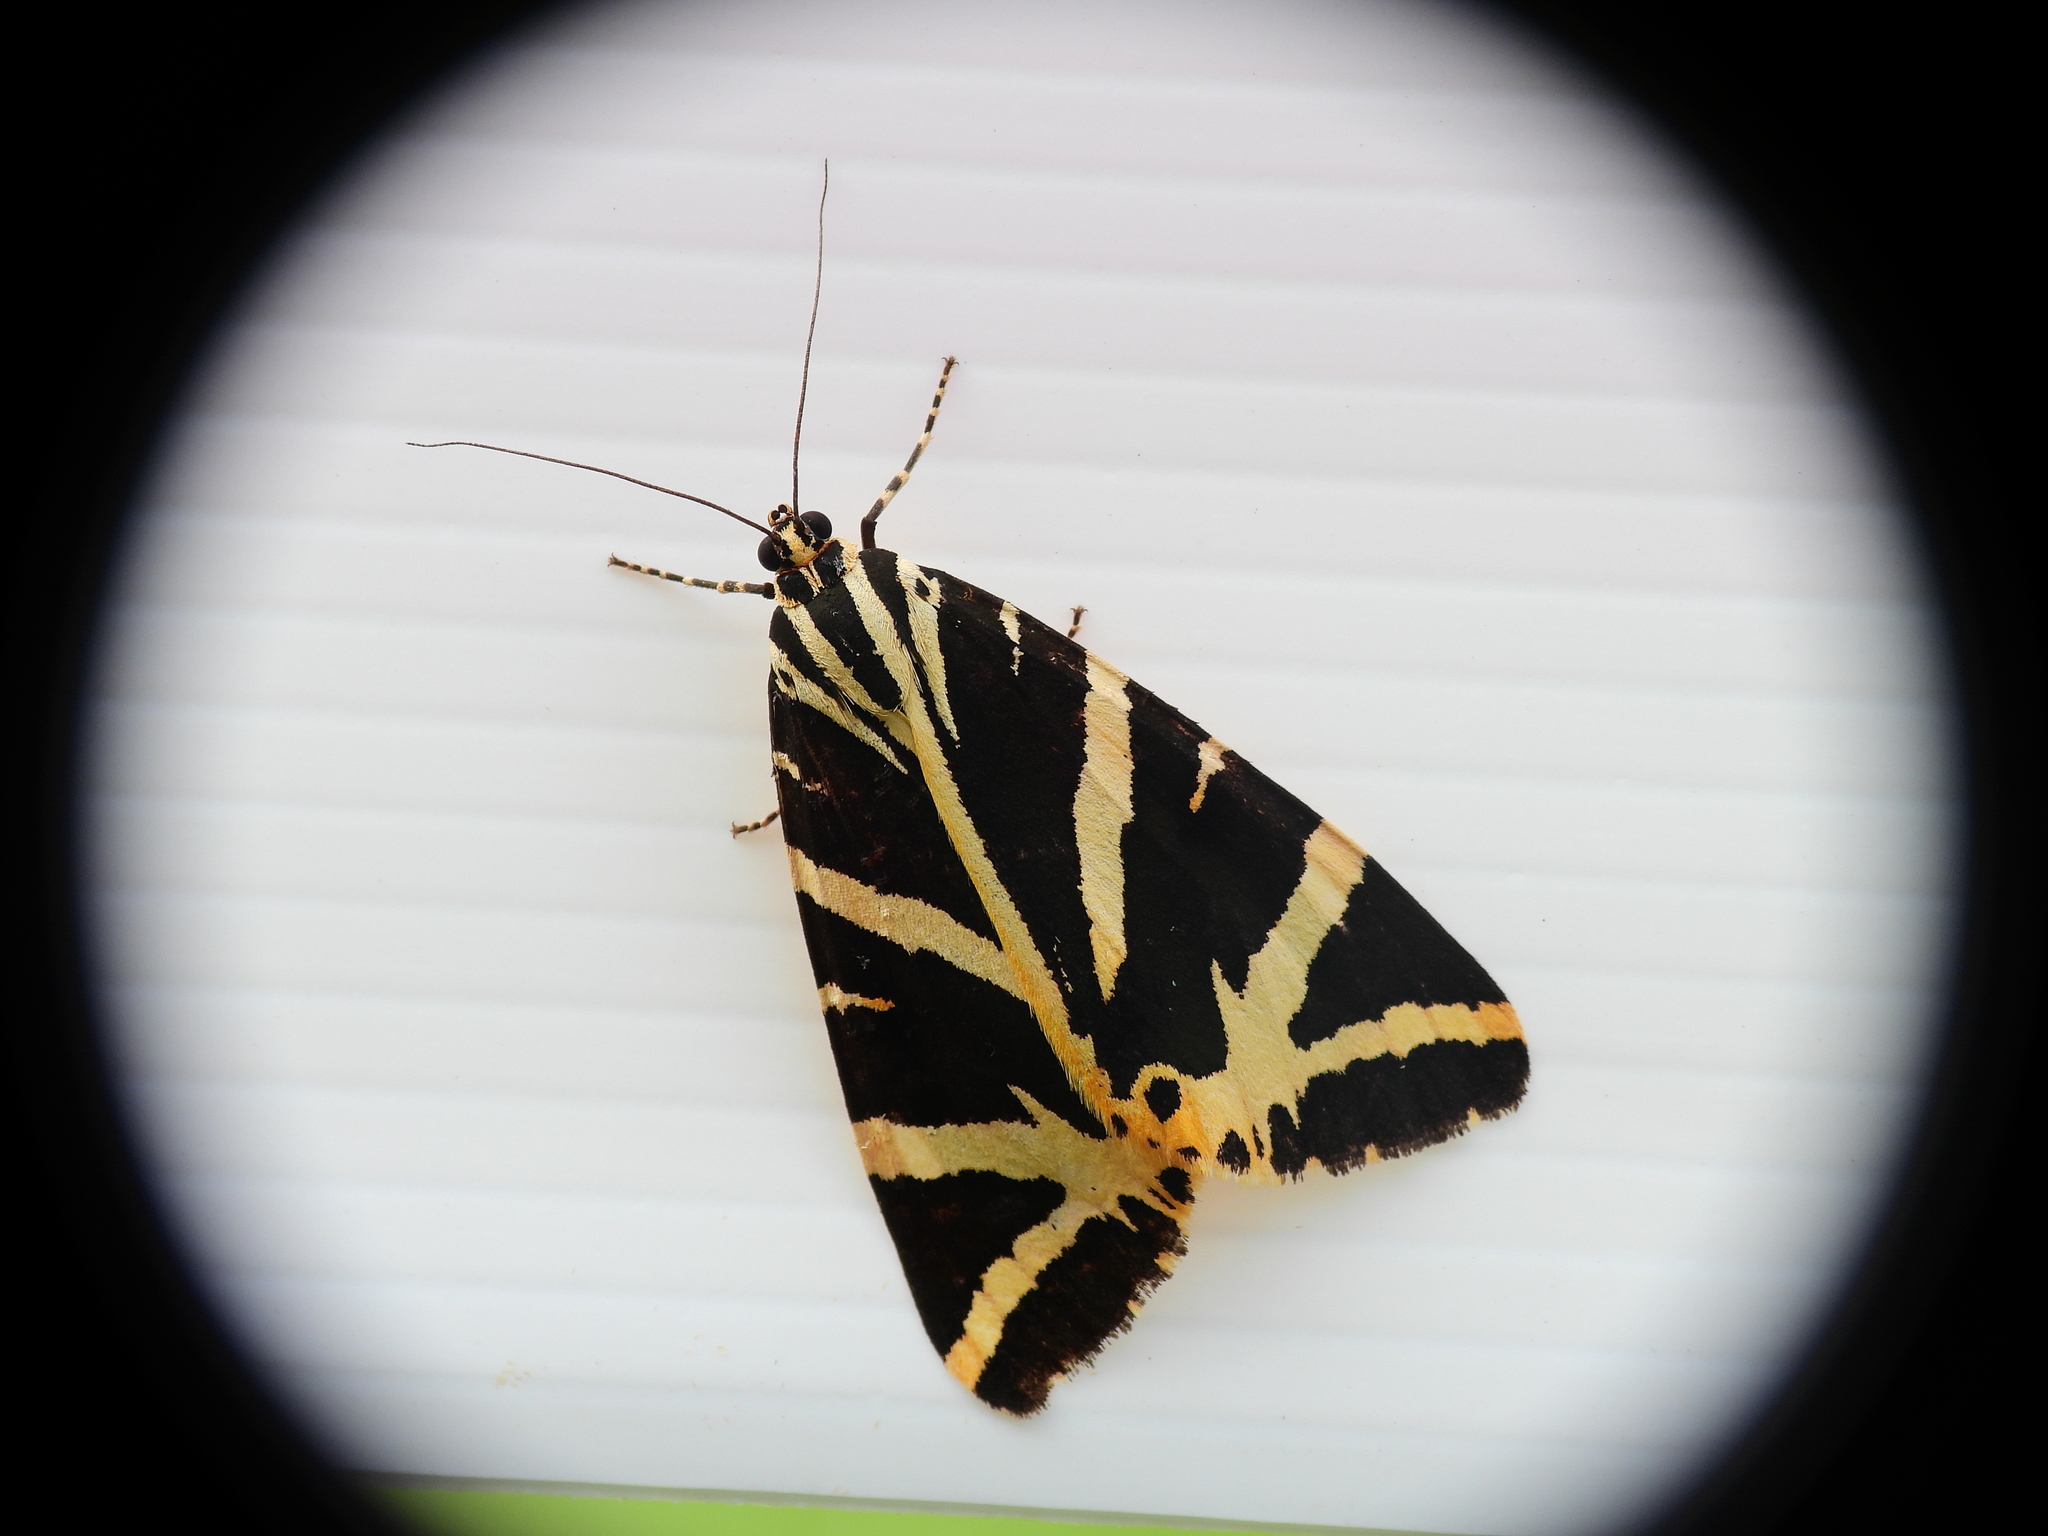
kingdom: Animalia
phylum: Arthropoda
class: Insecta
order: Lepidoptera
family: Erebidae
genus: Euplagia
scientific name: Euplagia quadripunctaria
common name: Jersey tiger
